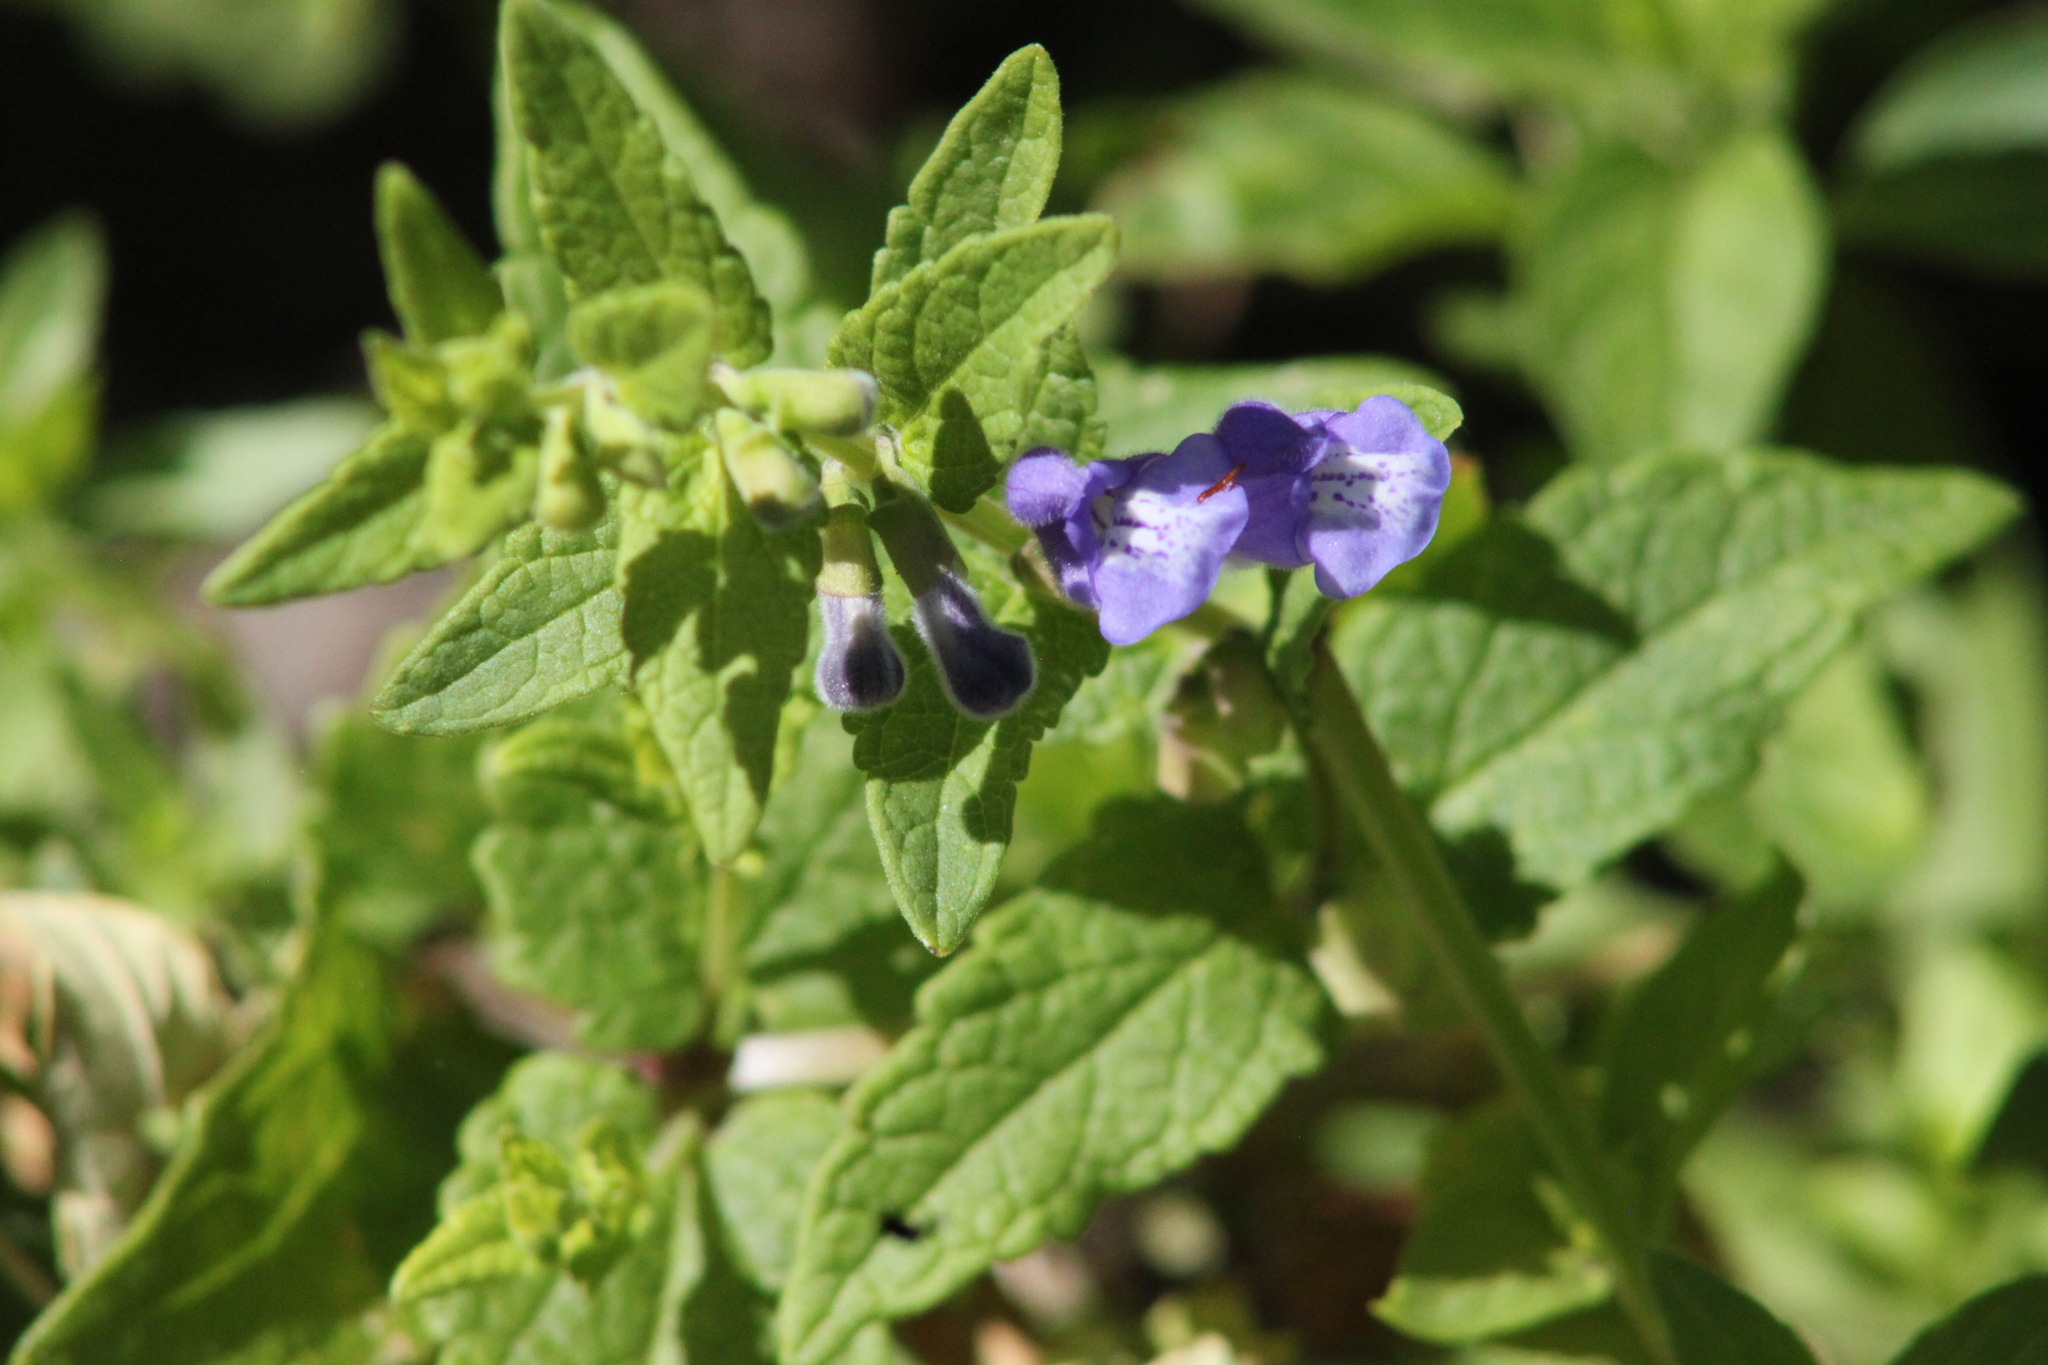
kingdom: Plantae
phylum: Tracheophyta
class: Magnoliopsida
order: Lamiales
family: Lamiaceae
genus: Scutellaria
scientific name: Scutellaria galericulata
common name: Skullcap
